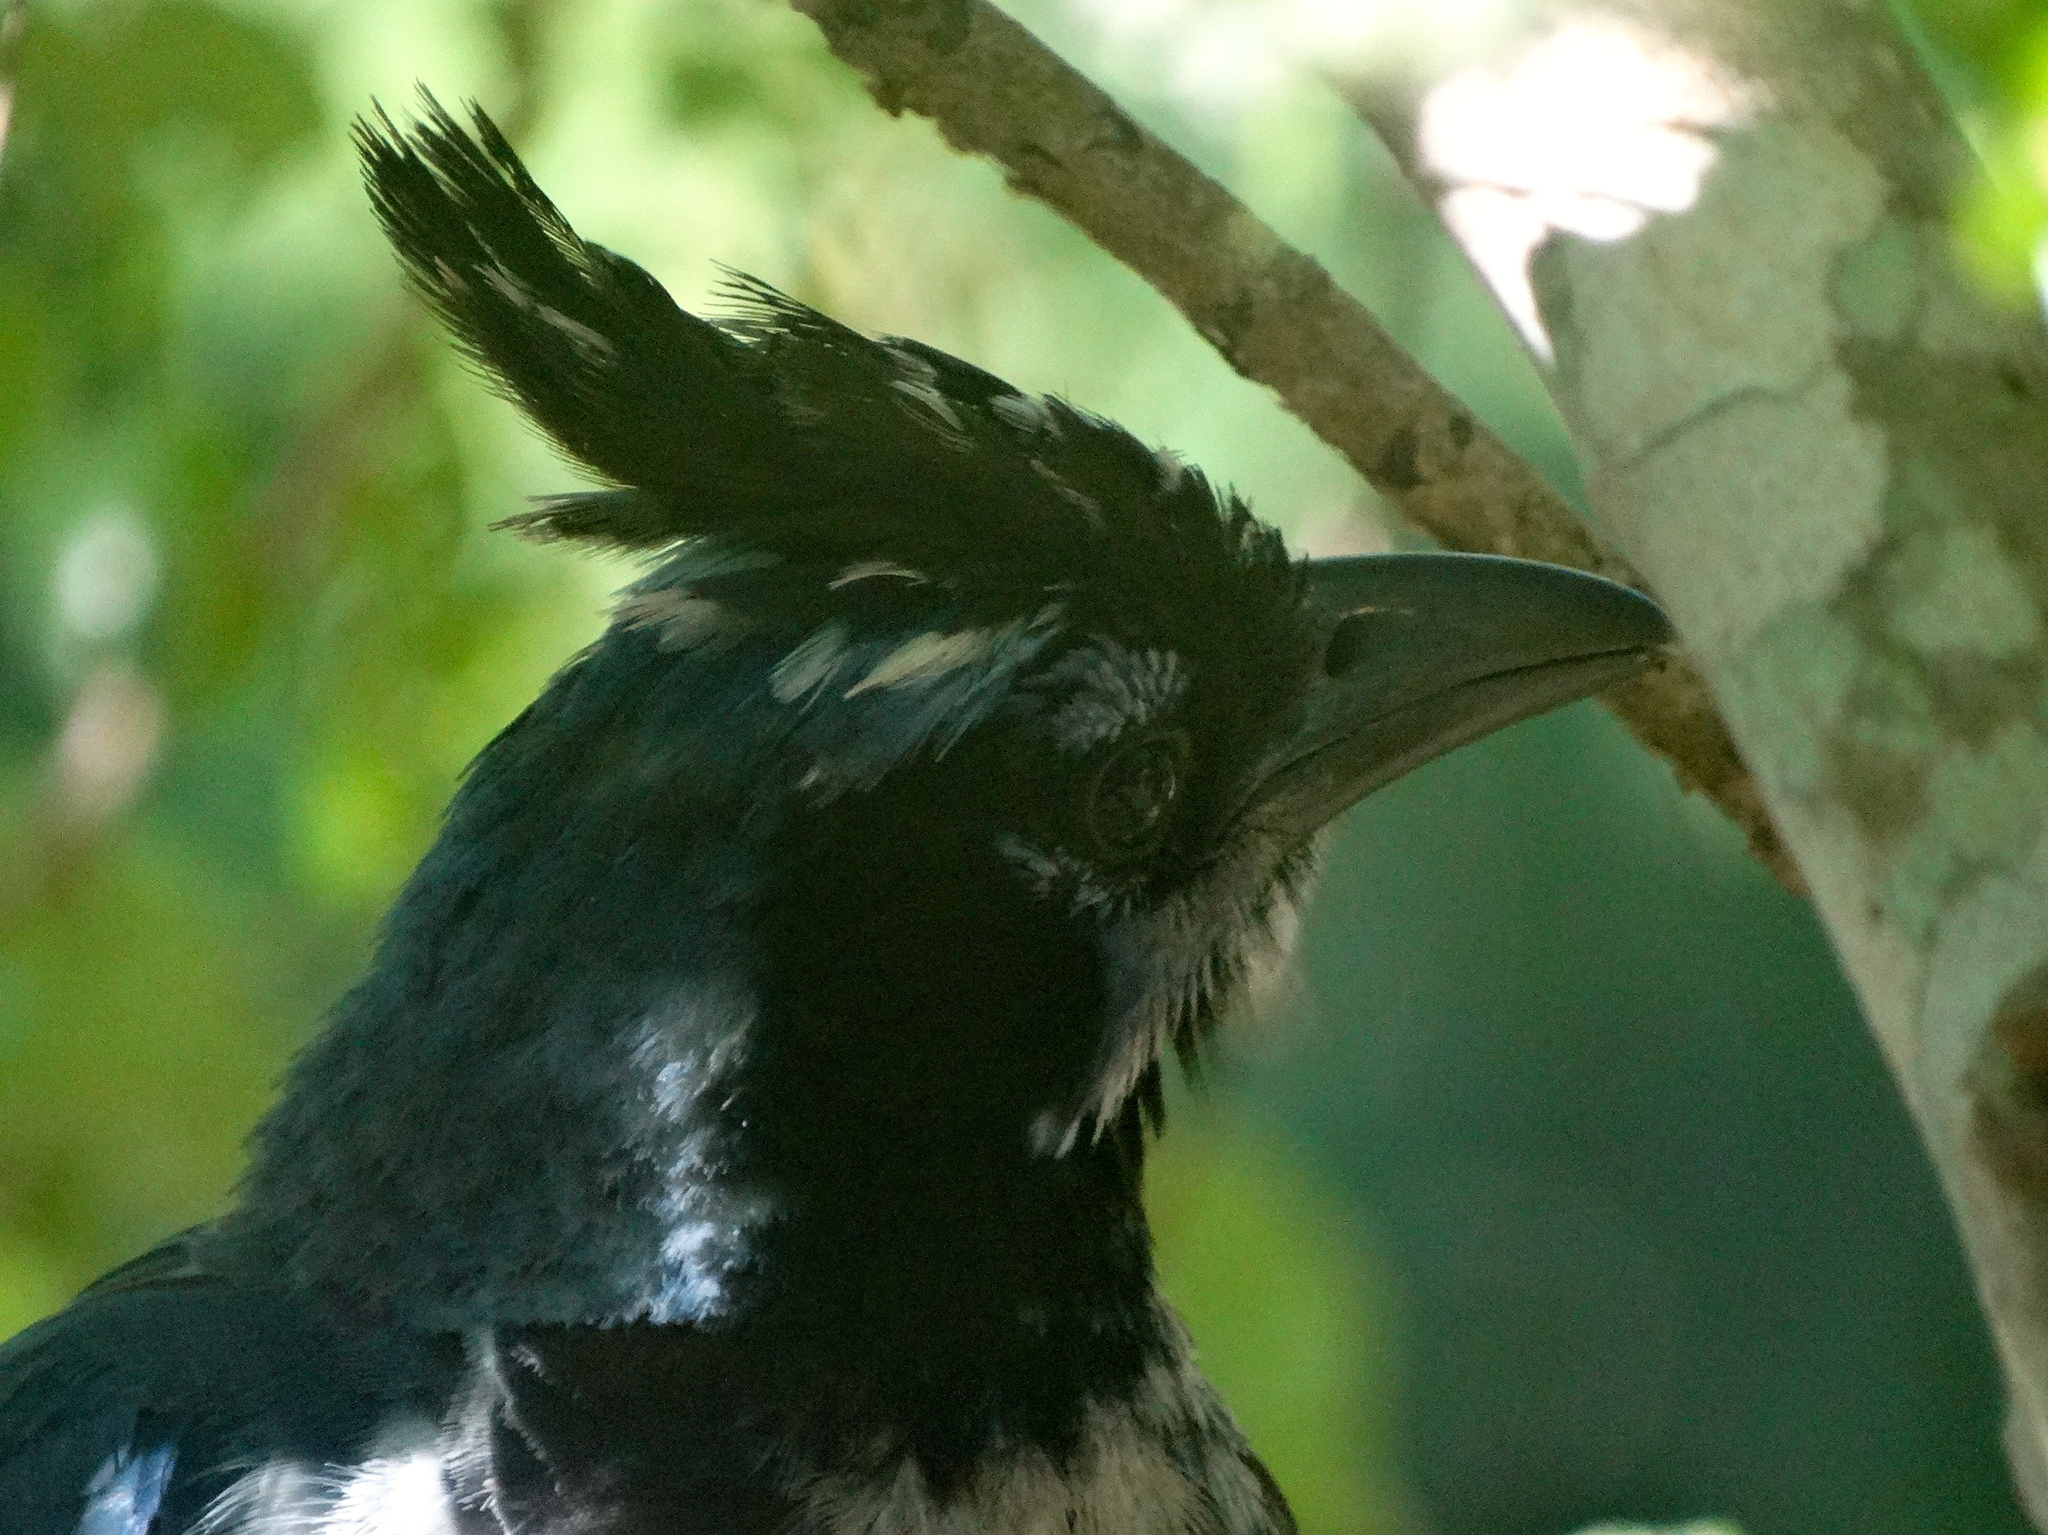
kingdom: Animalia
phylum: Chordata
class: Aves
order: Passeriformes
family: Corvidae
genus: Calocitta
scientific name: Calocitta colliei
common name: Black-throated magpie-jay
